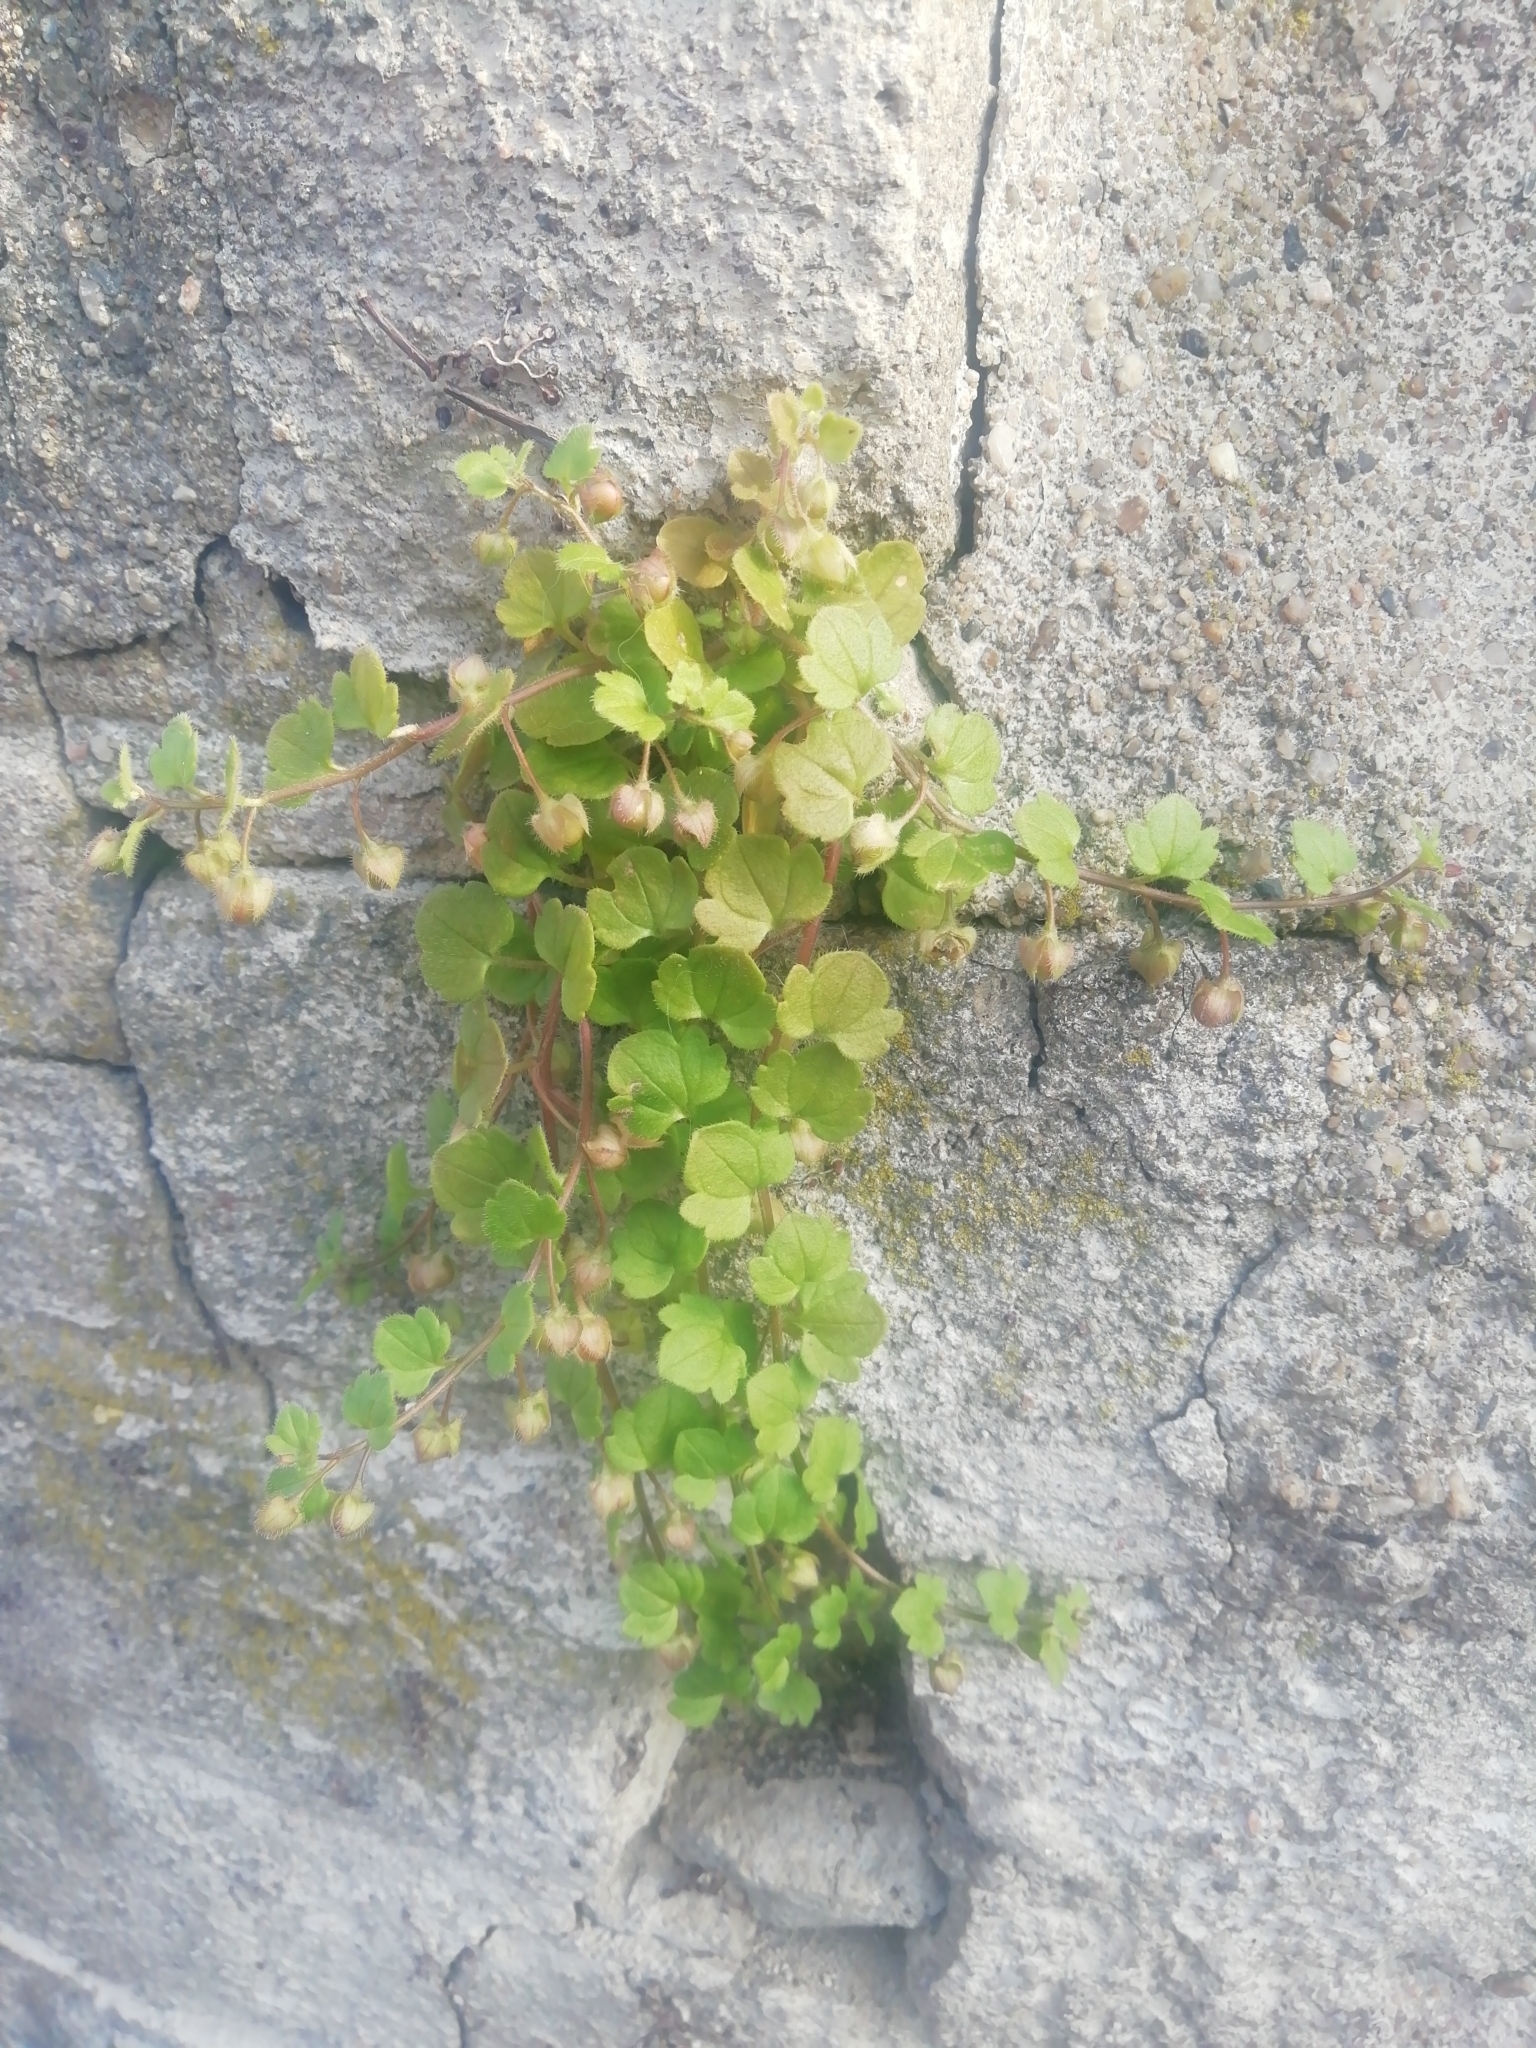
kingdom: Plantae
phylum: Tracheophyta
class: Magnoliopsida
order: Lamiales
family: Plantaginaceae
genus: Veronica
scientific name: Veronica sublobata
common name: False ivy-leaved speedwell
